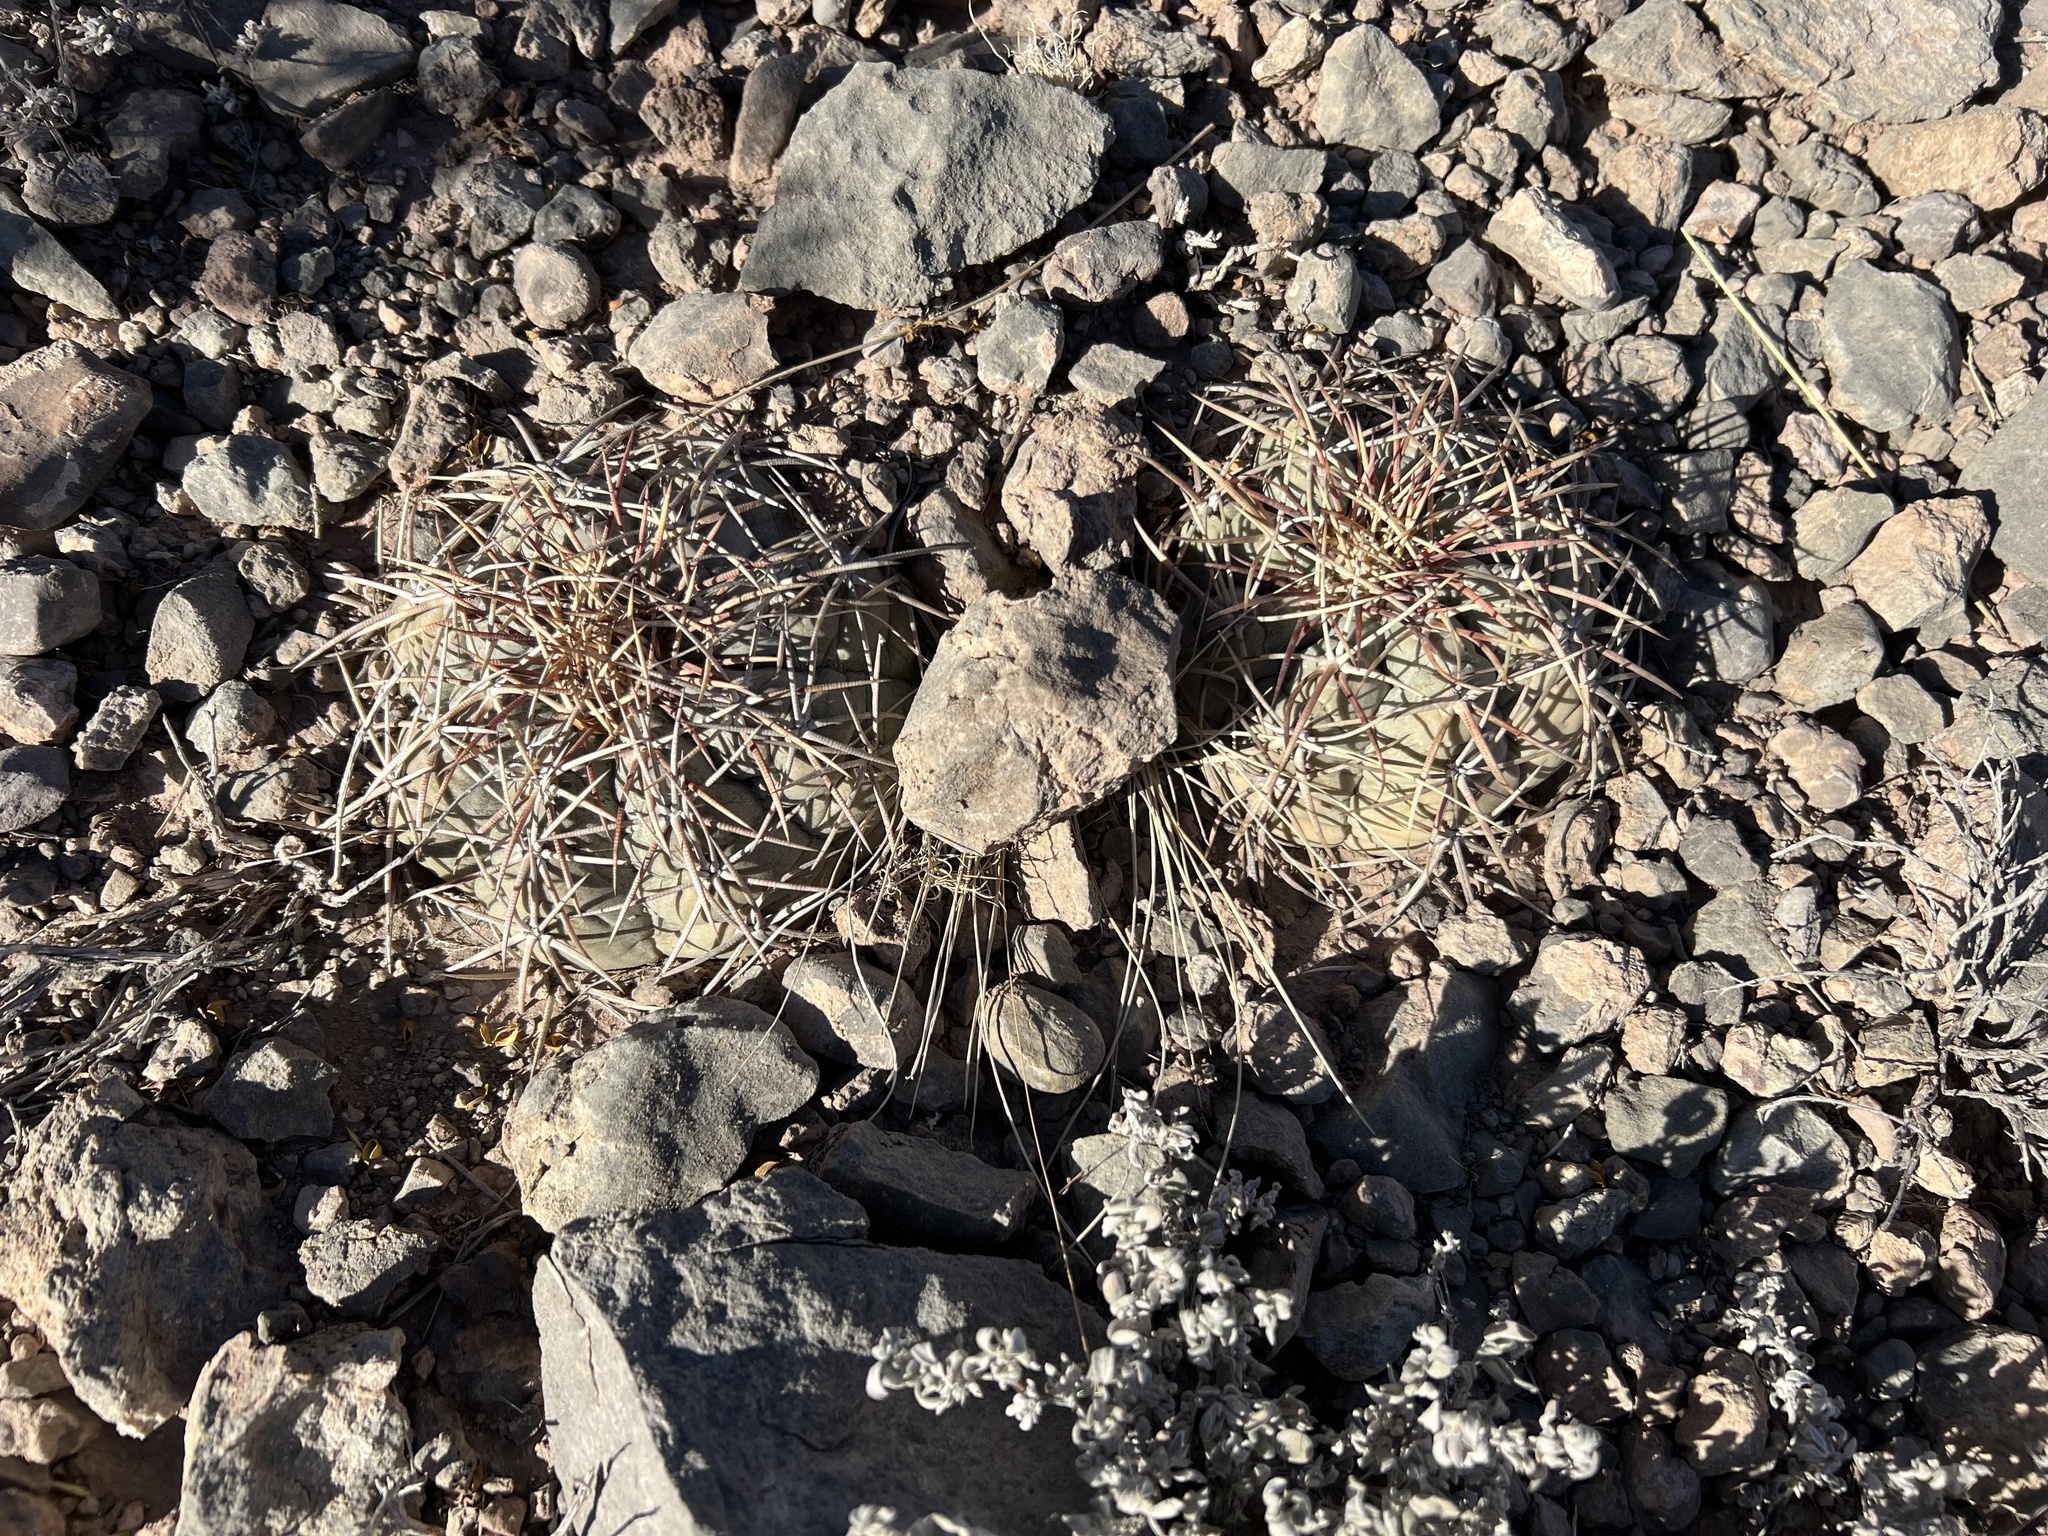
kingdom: Plantae
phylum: Tracheophyta
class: Magnoliopsida
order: Caryophyllales
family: Cactaceae
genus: Echinocactus
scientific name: Echinocactus horizonthalonius
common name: Devilshead
